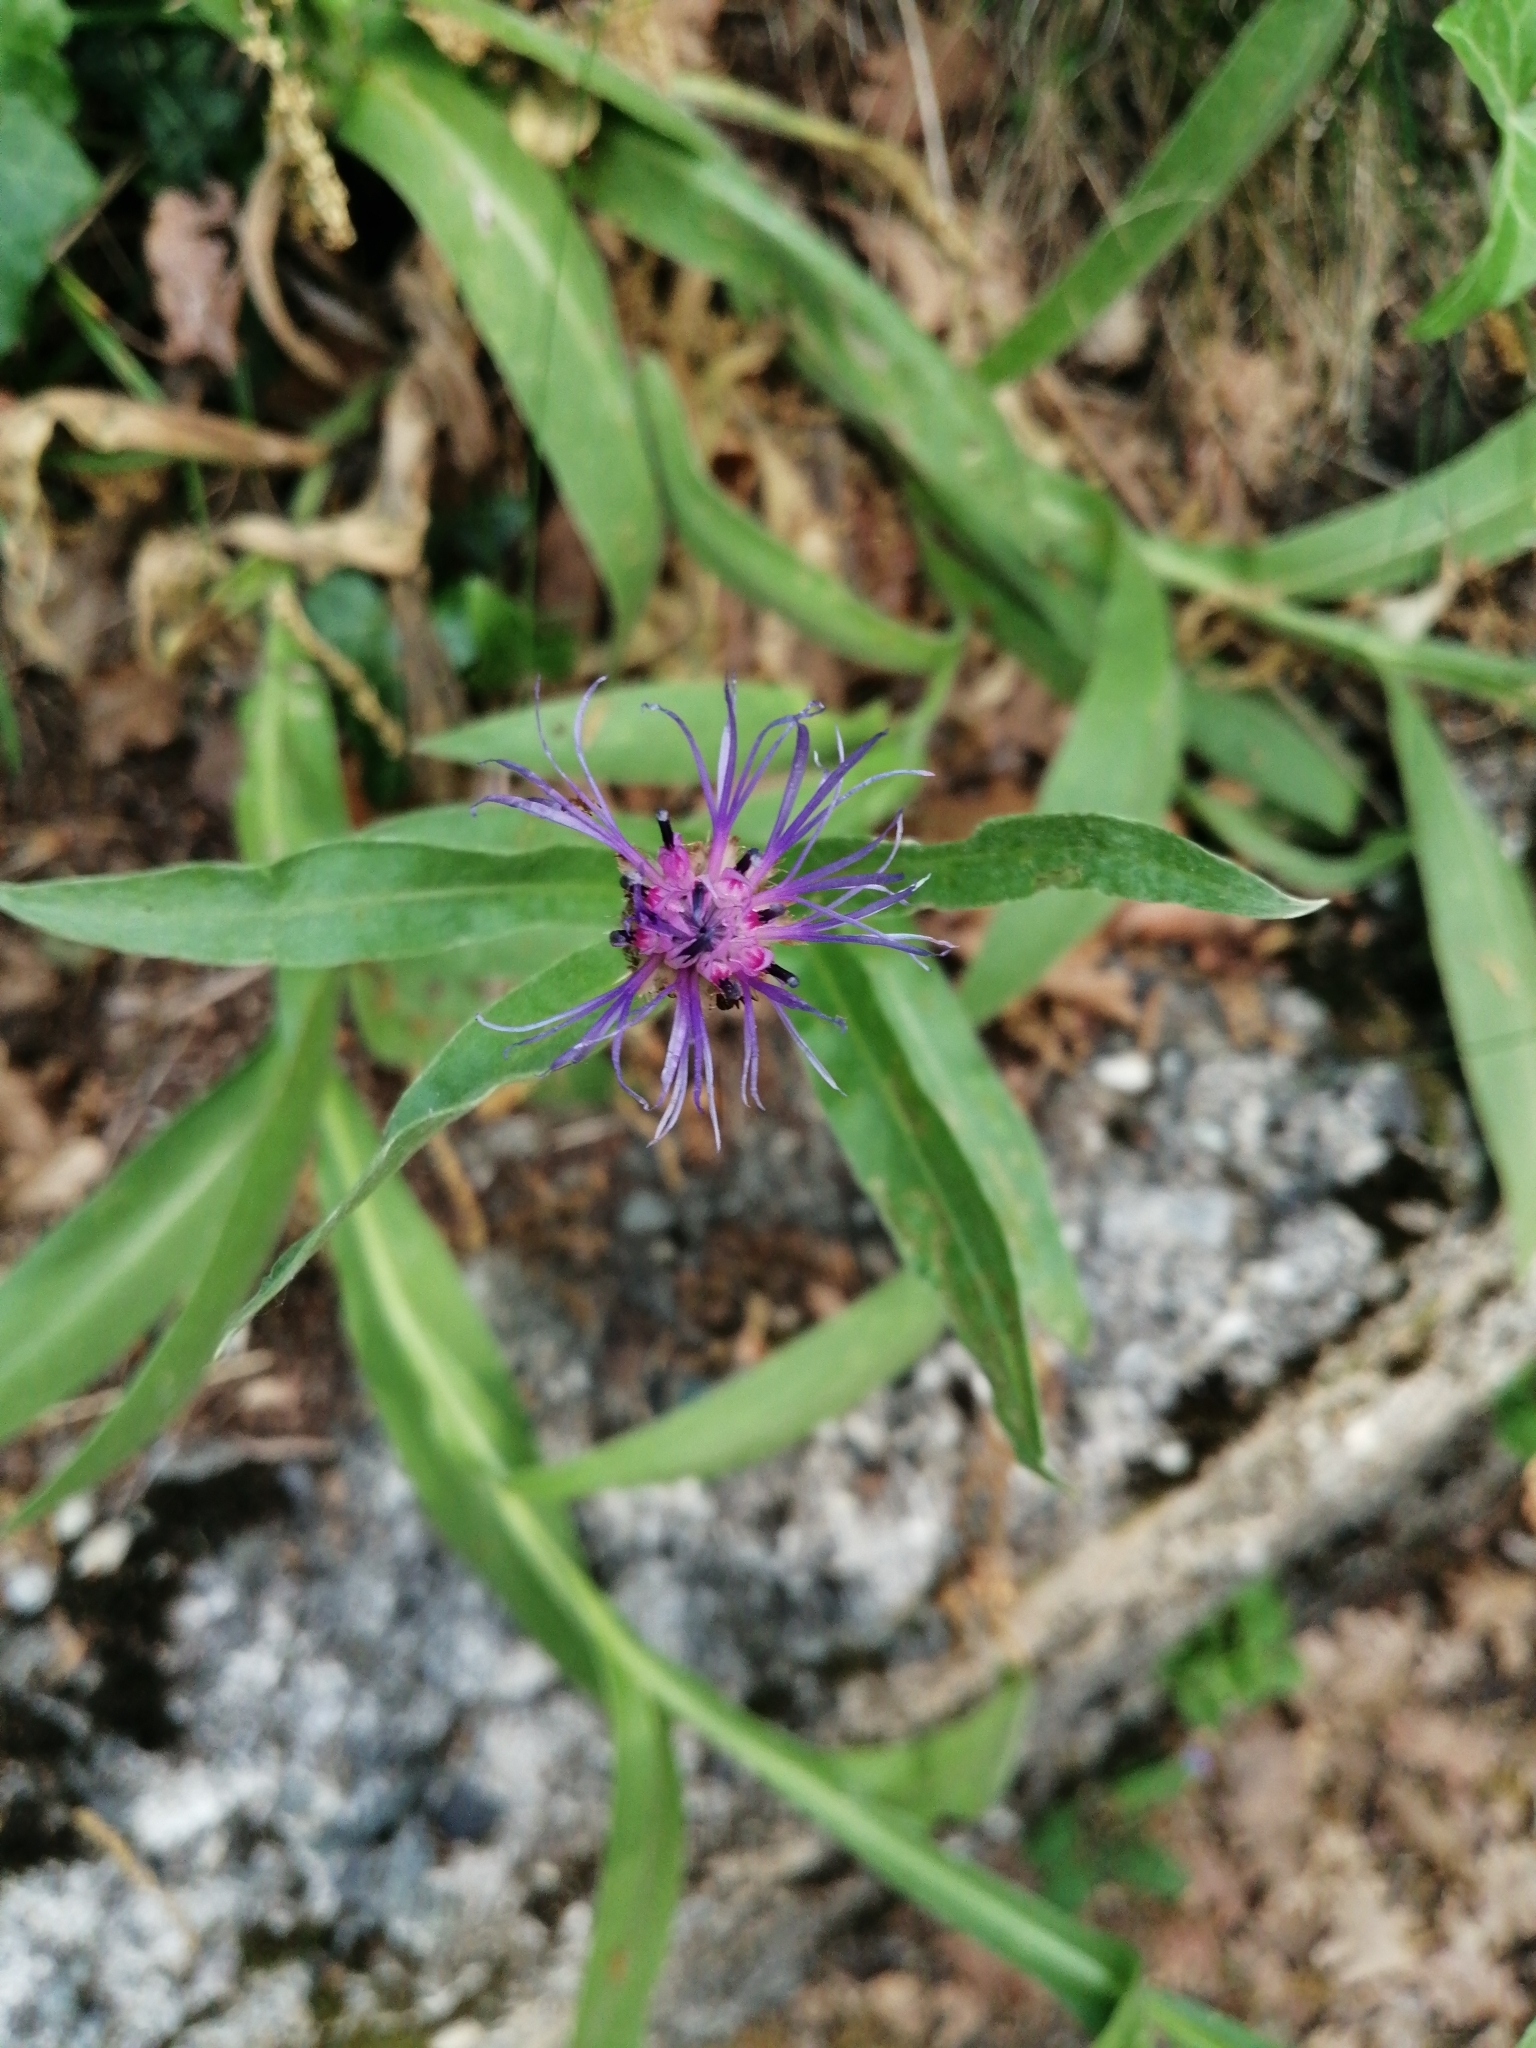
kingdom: Plantae
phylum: Tracheophyta
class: Magnoliopsida
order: Asterales
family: Asteraceae
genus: Centaurea
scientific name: Centaurea triumfettii
